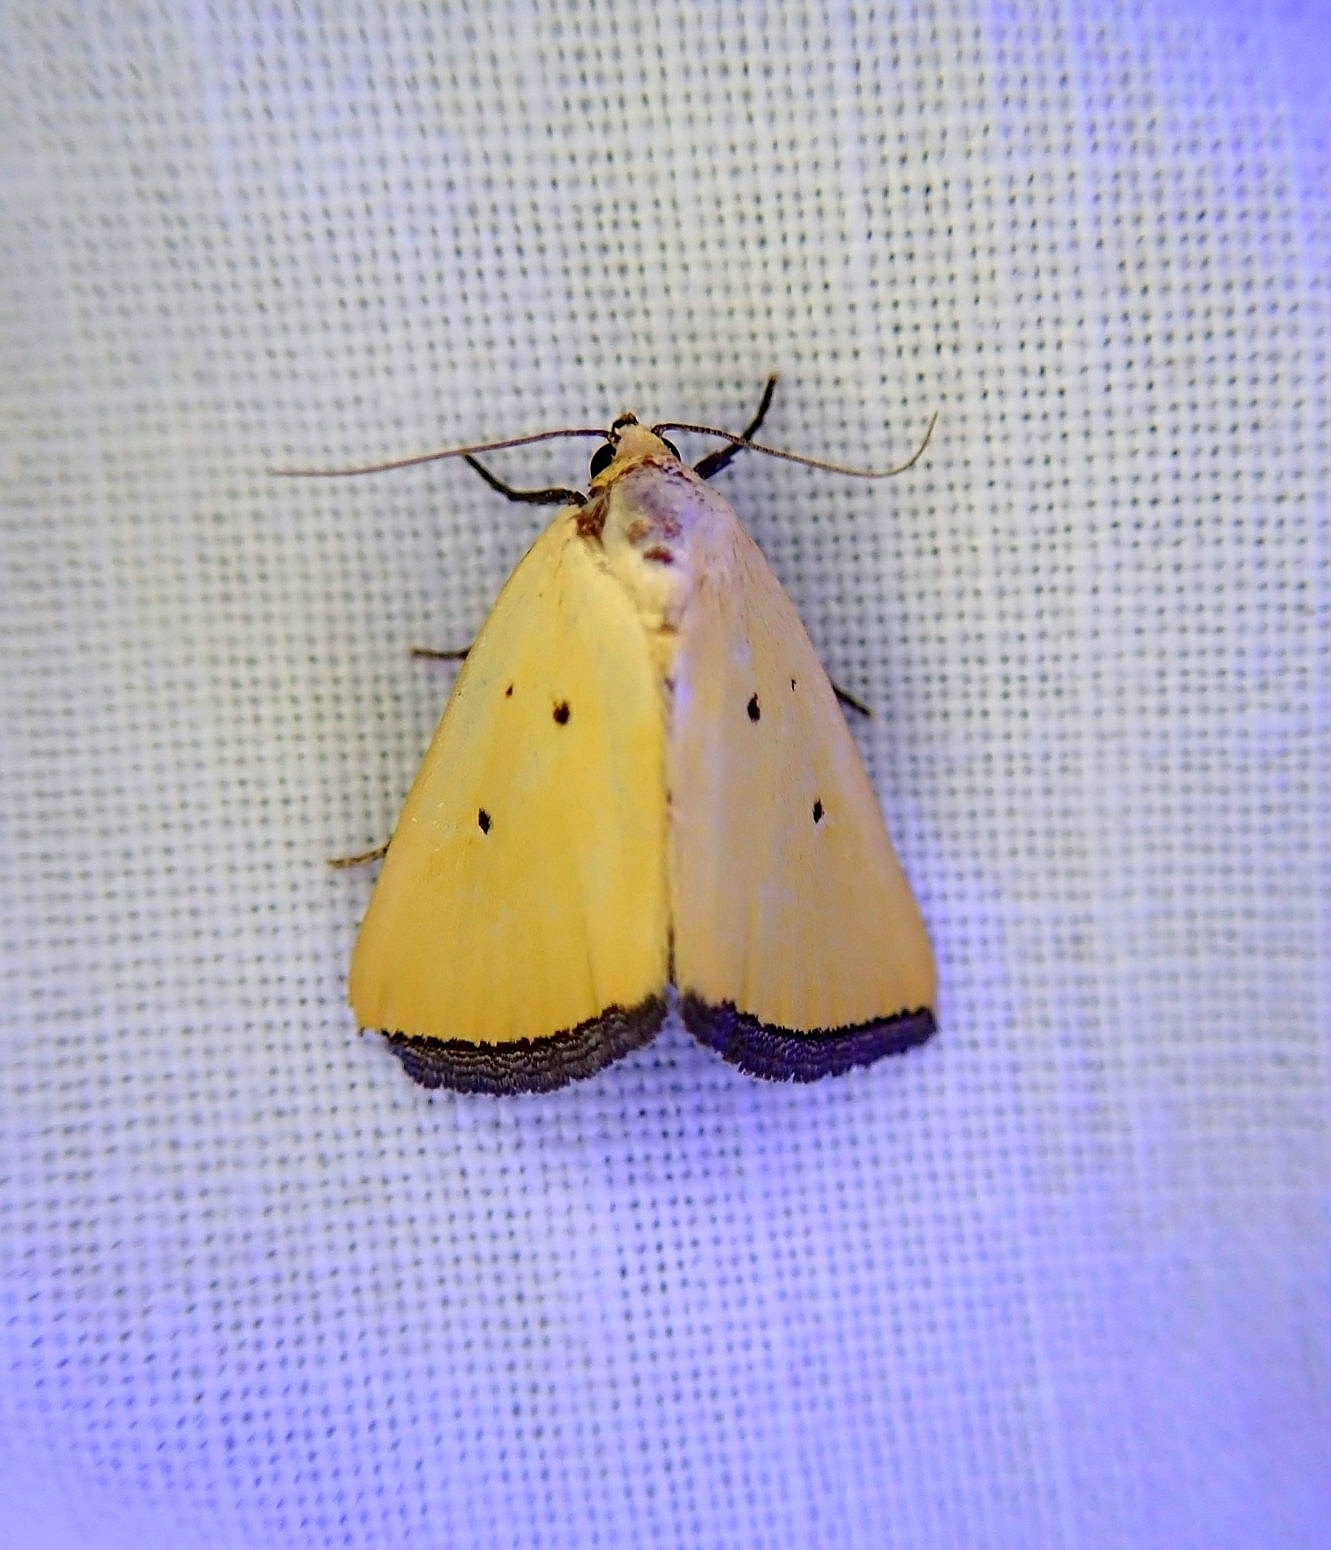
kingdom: Animalia
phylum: Arthropoda
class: Insecta
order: Lepidoptera
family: Noctuidae
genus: Marimatha
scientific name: Marimatha nigrofimbria
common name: Black-bordered lemon moth
